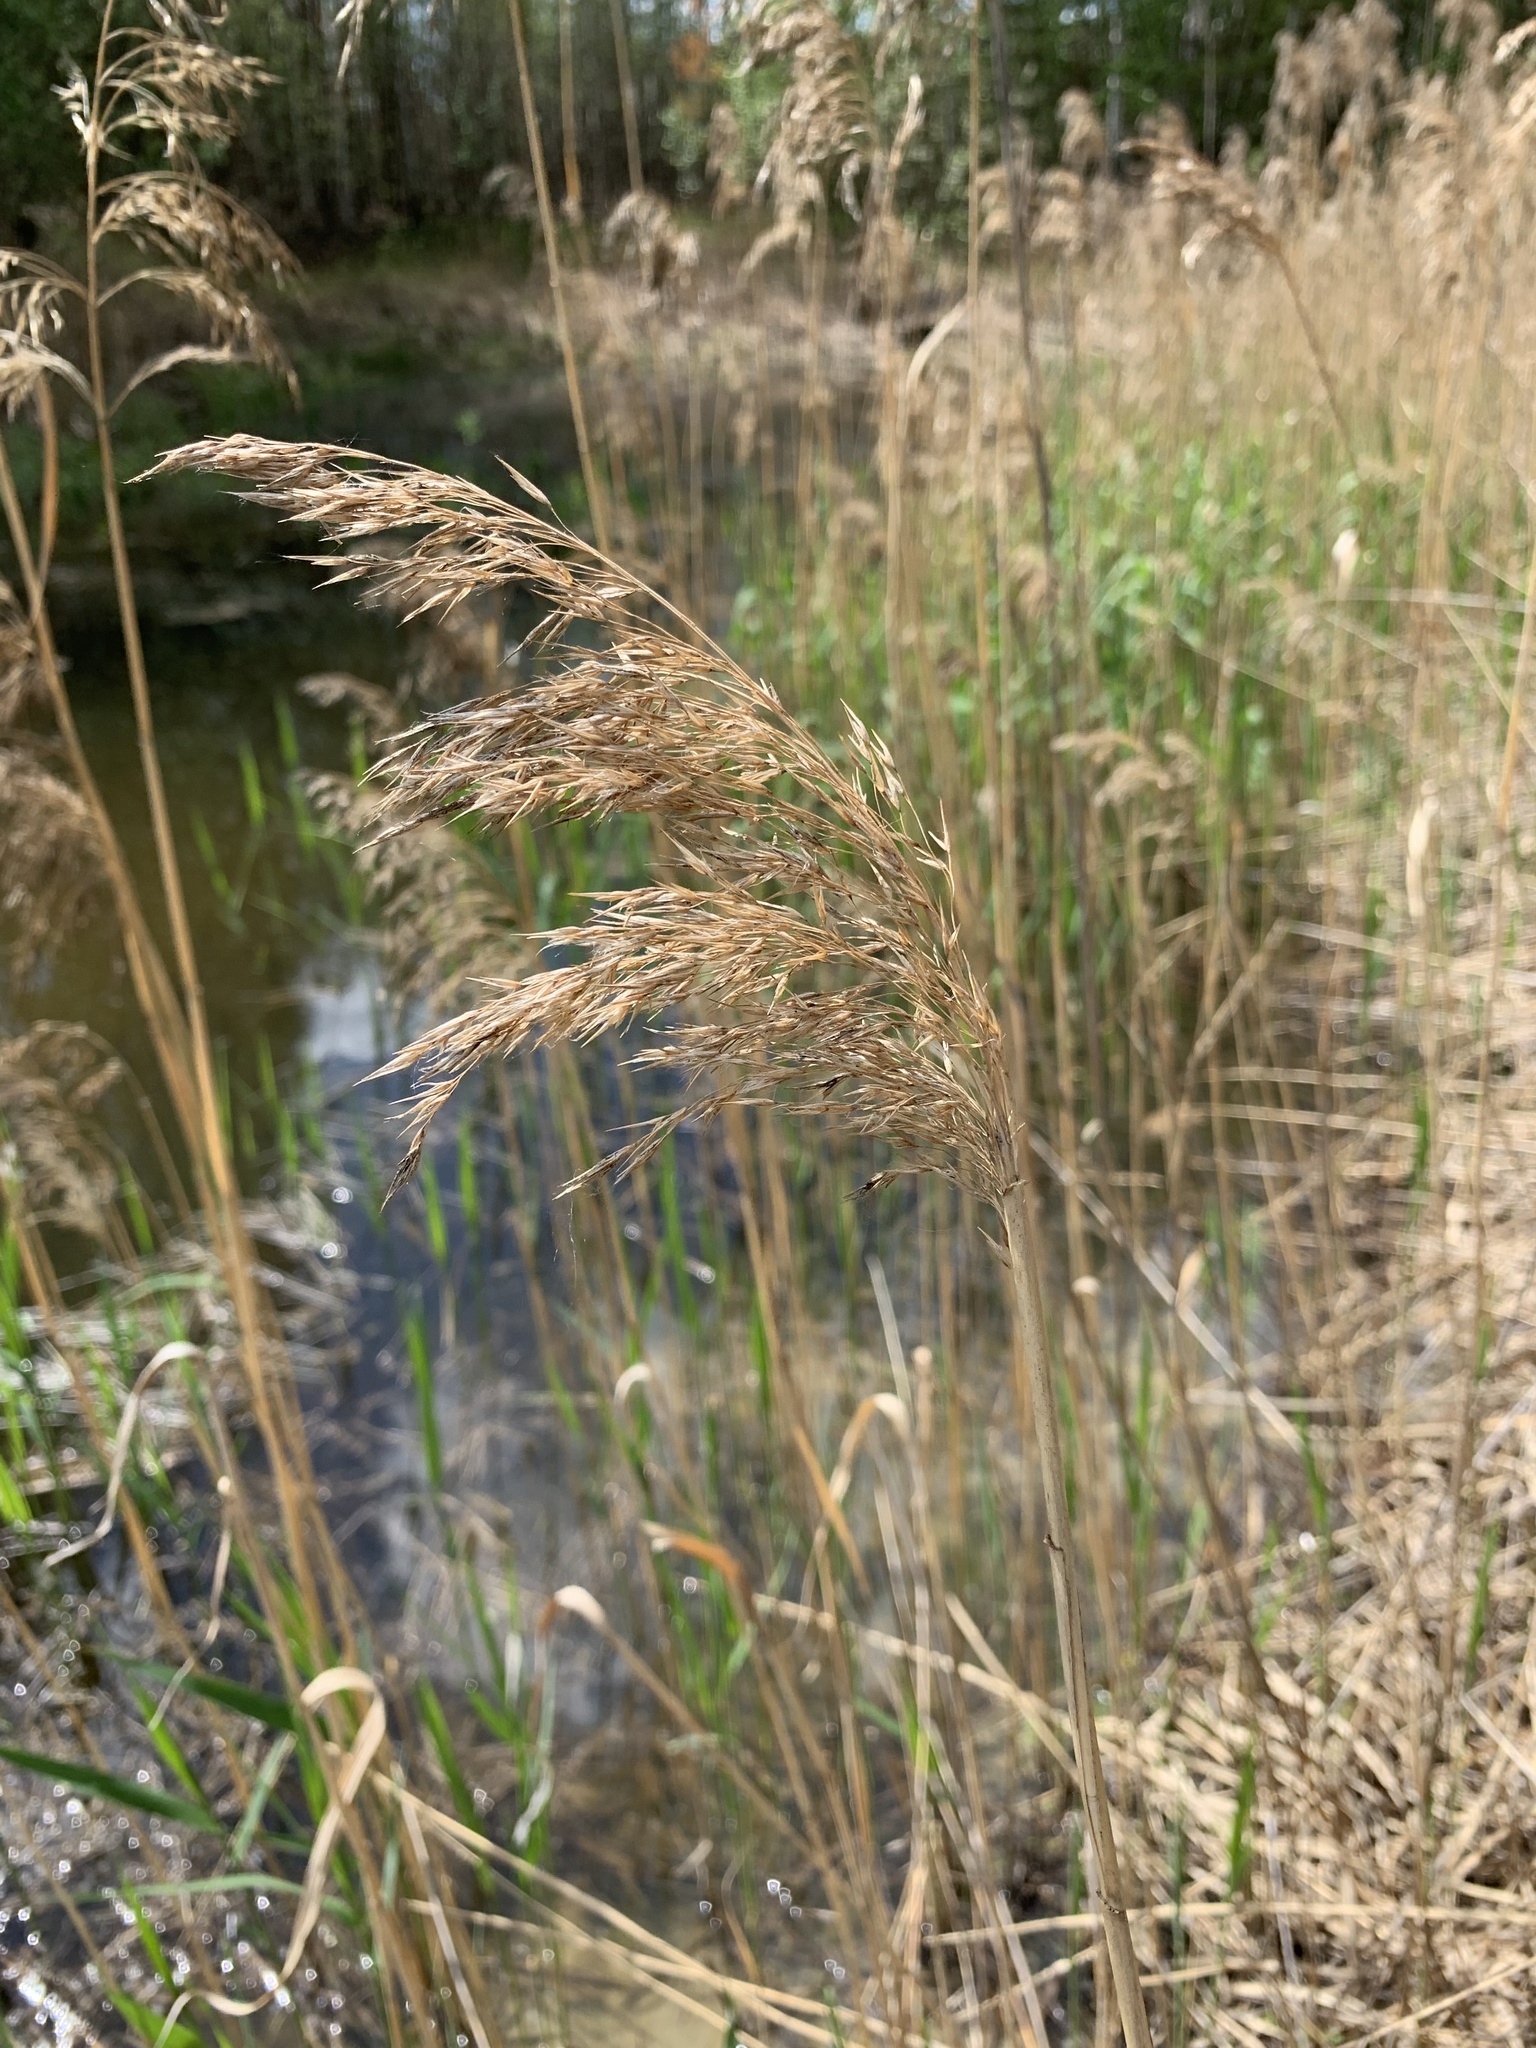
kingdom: Plantae
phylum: Tracheophyta
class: Liliopsida
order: Poales
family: Poaceae
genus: Phragmites
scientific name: Phragmites australis
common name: Common reed
